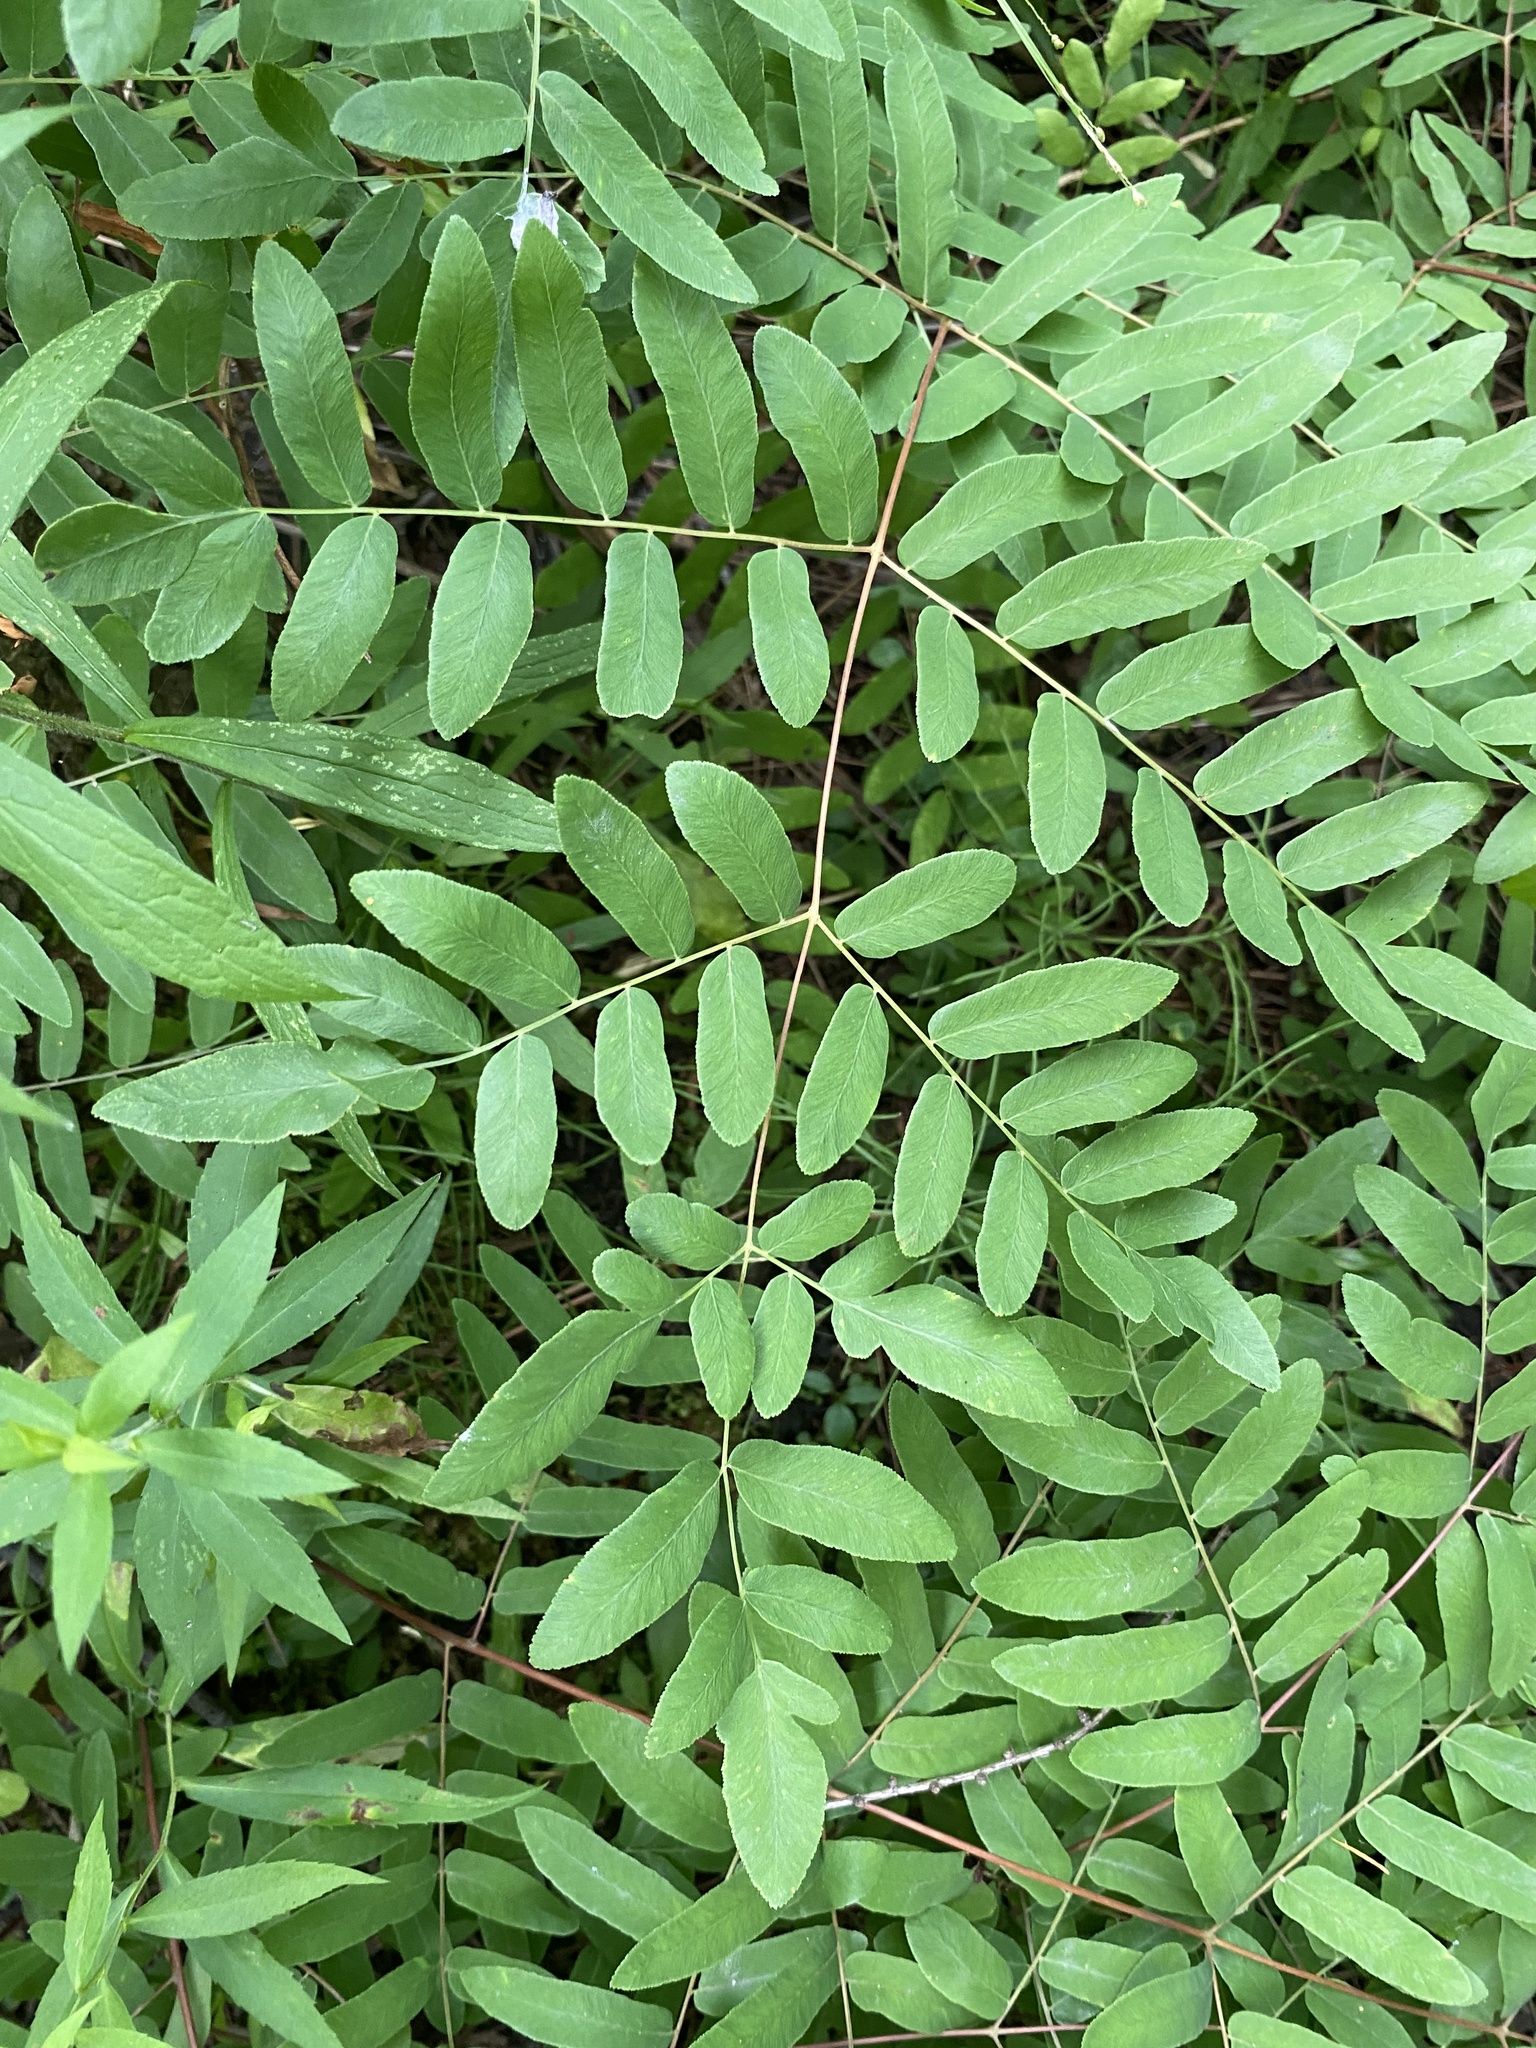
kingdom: Plantae
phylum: Tracheophyta
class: Polypodiopsida
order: Osmundales
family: Osmundaceae
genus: Osmunda
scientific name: Osmunda spectabilis
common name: American royal fern
